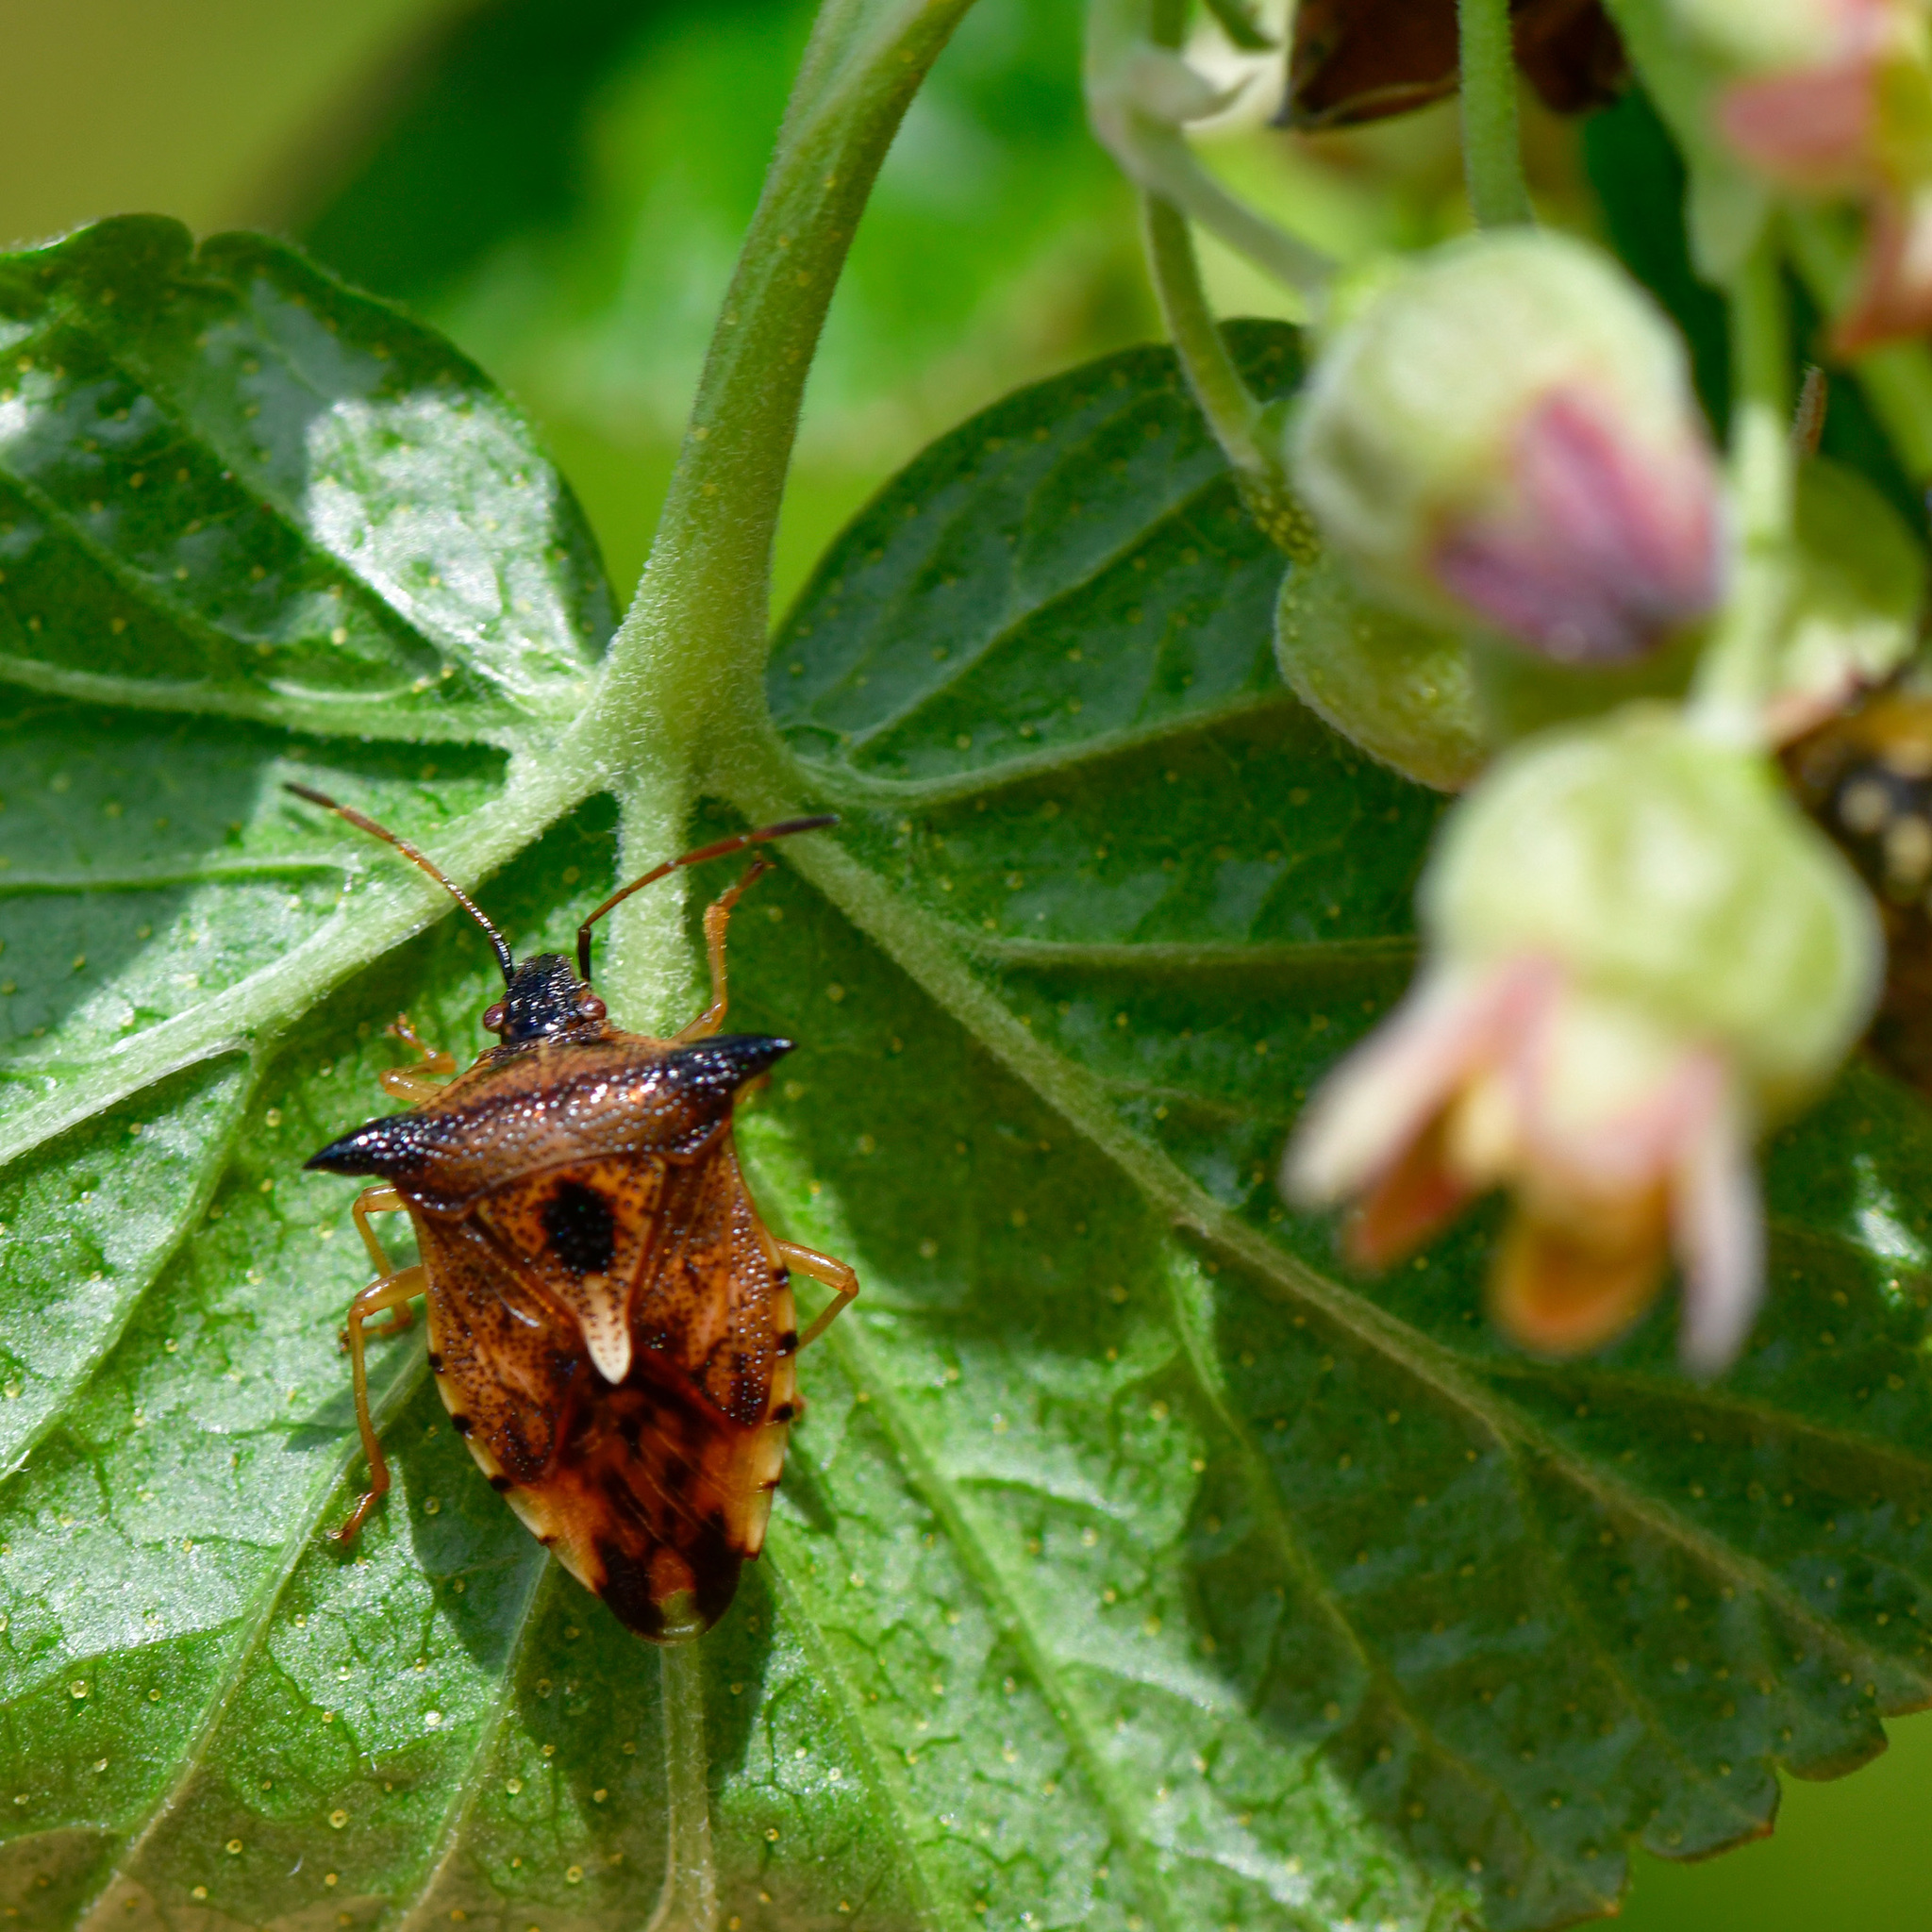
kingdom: Animalia
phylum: Arthropoda
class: Insecta
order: Hemiptera
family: Acanthosomatidae
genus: Elasmucha
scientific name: Elasmucha ferrugata
